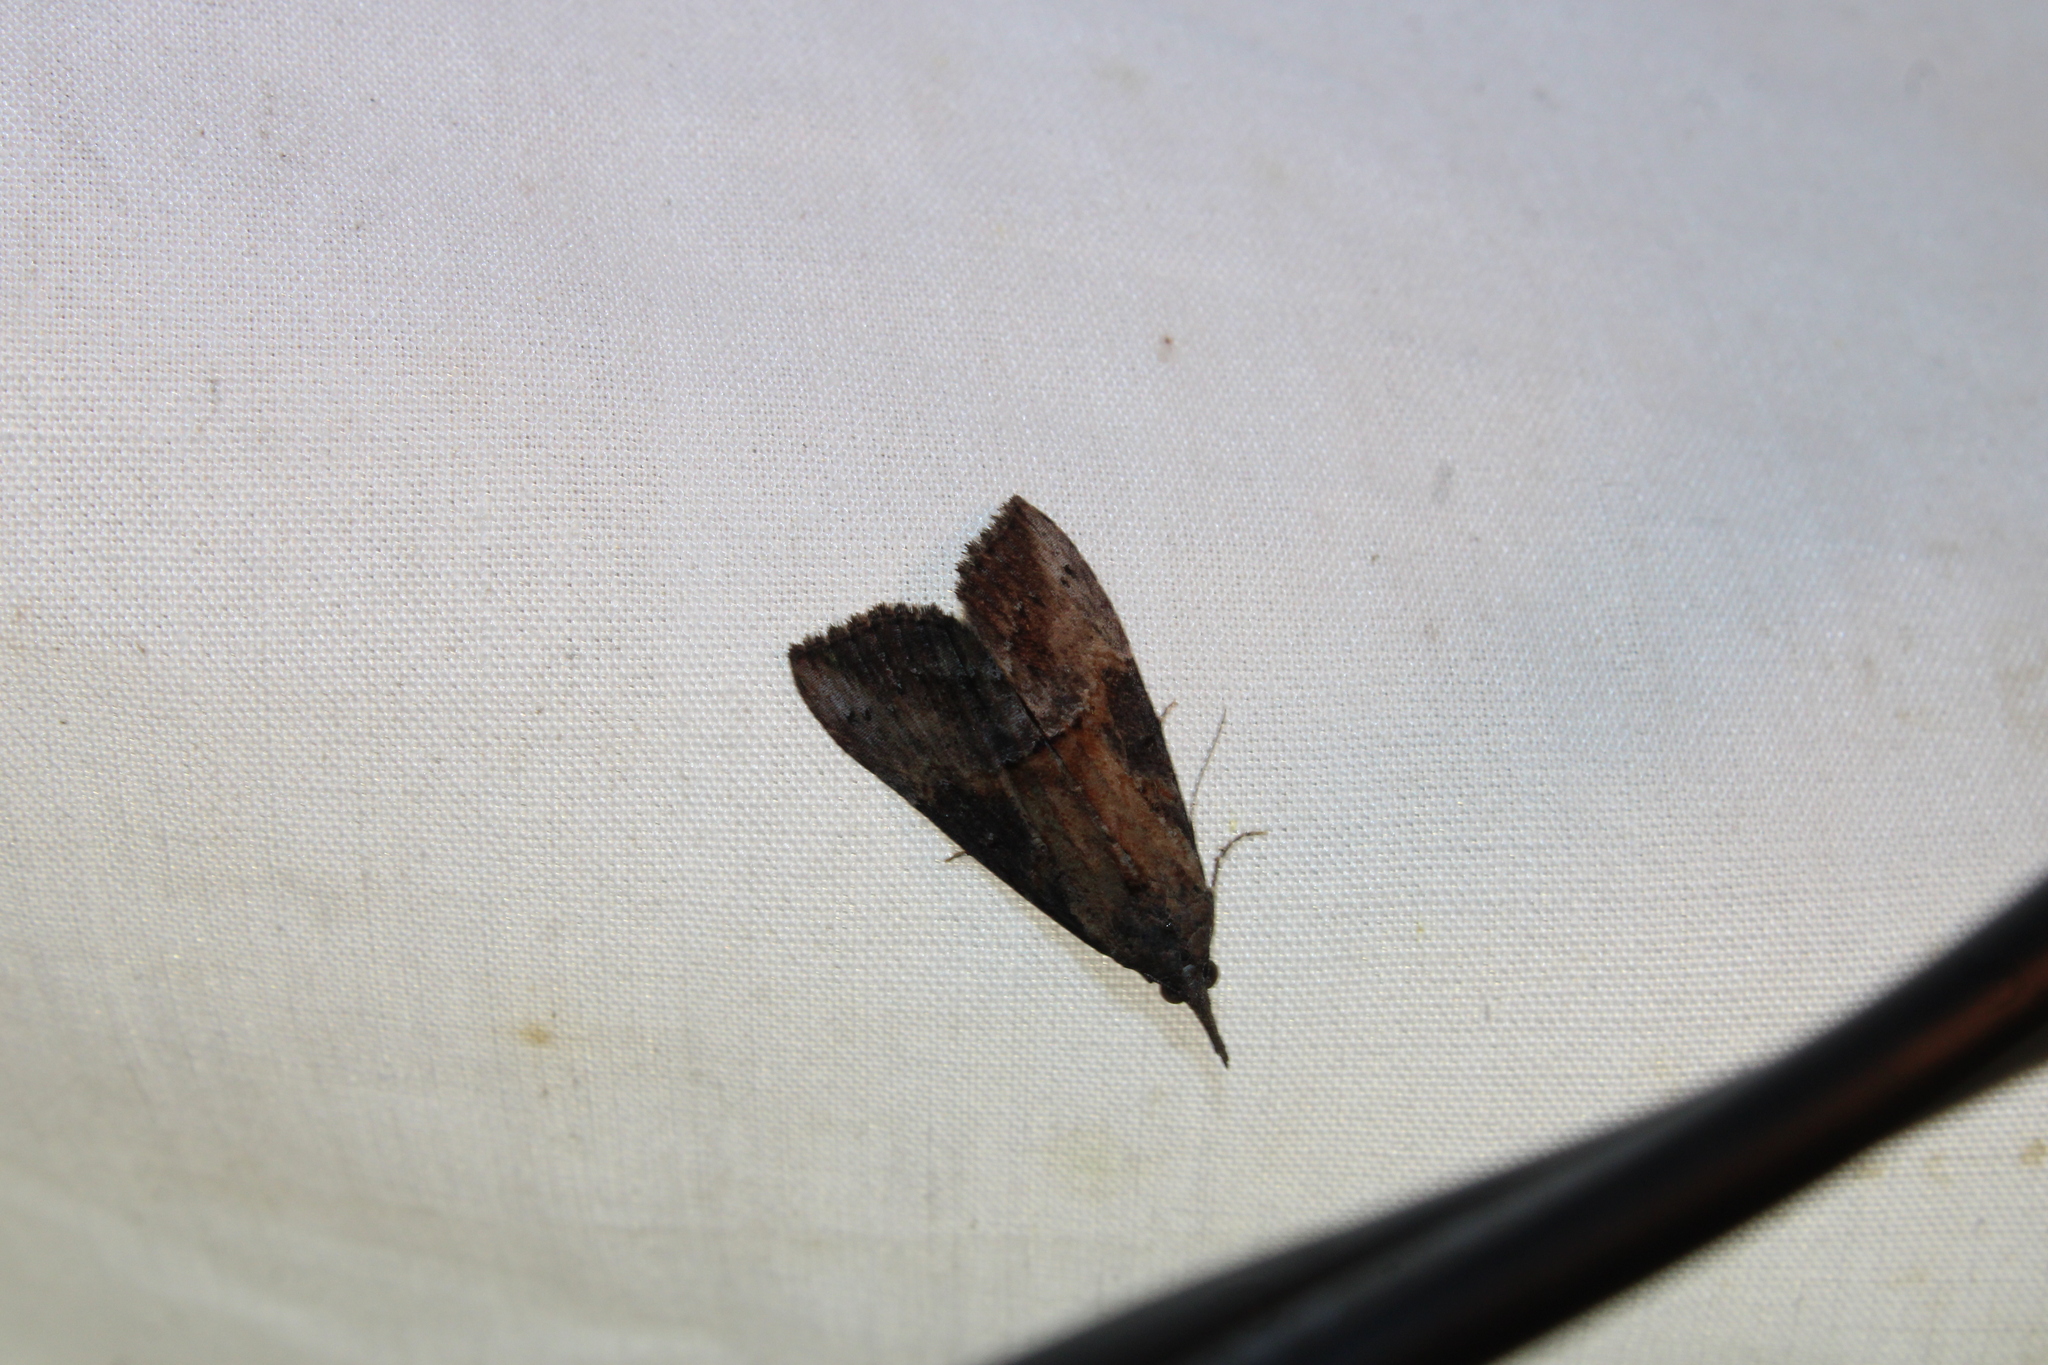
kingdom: Animalia
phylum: Arthropoda
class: Insecta
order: Lepidoptera
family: Erebidae
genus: Hypena
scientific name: Hypena scabra
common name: Green cloverworm
